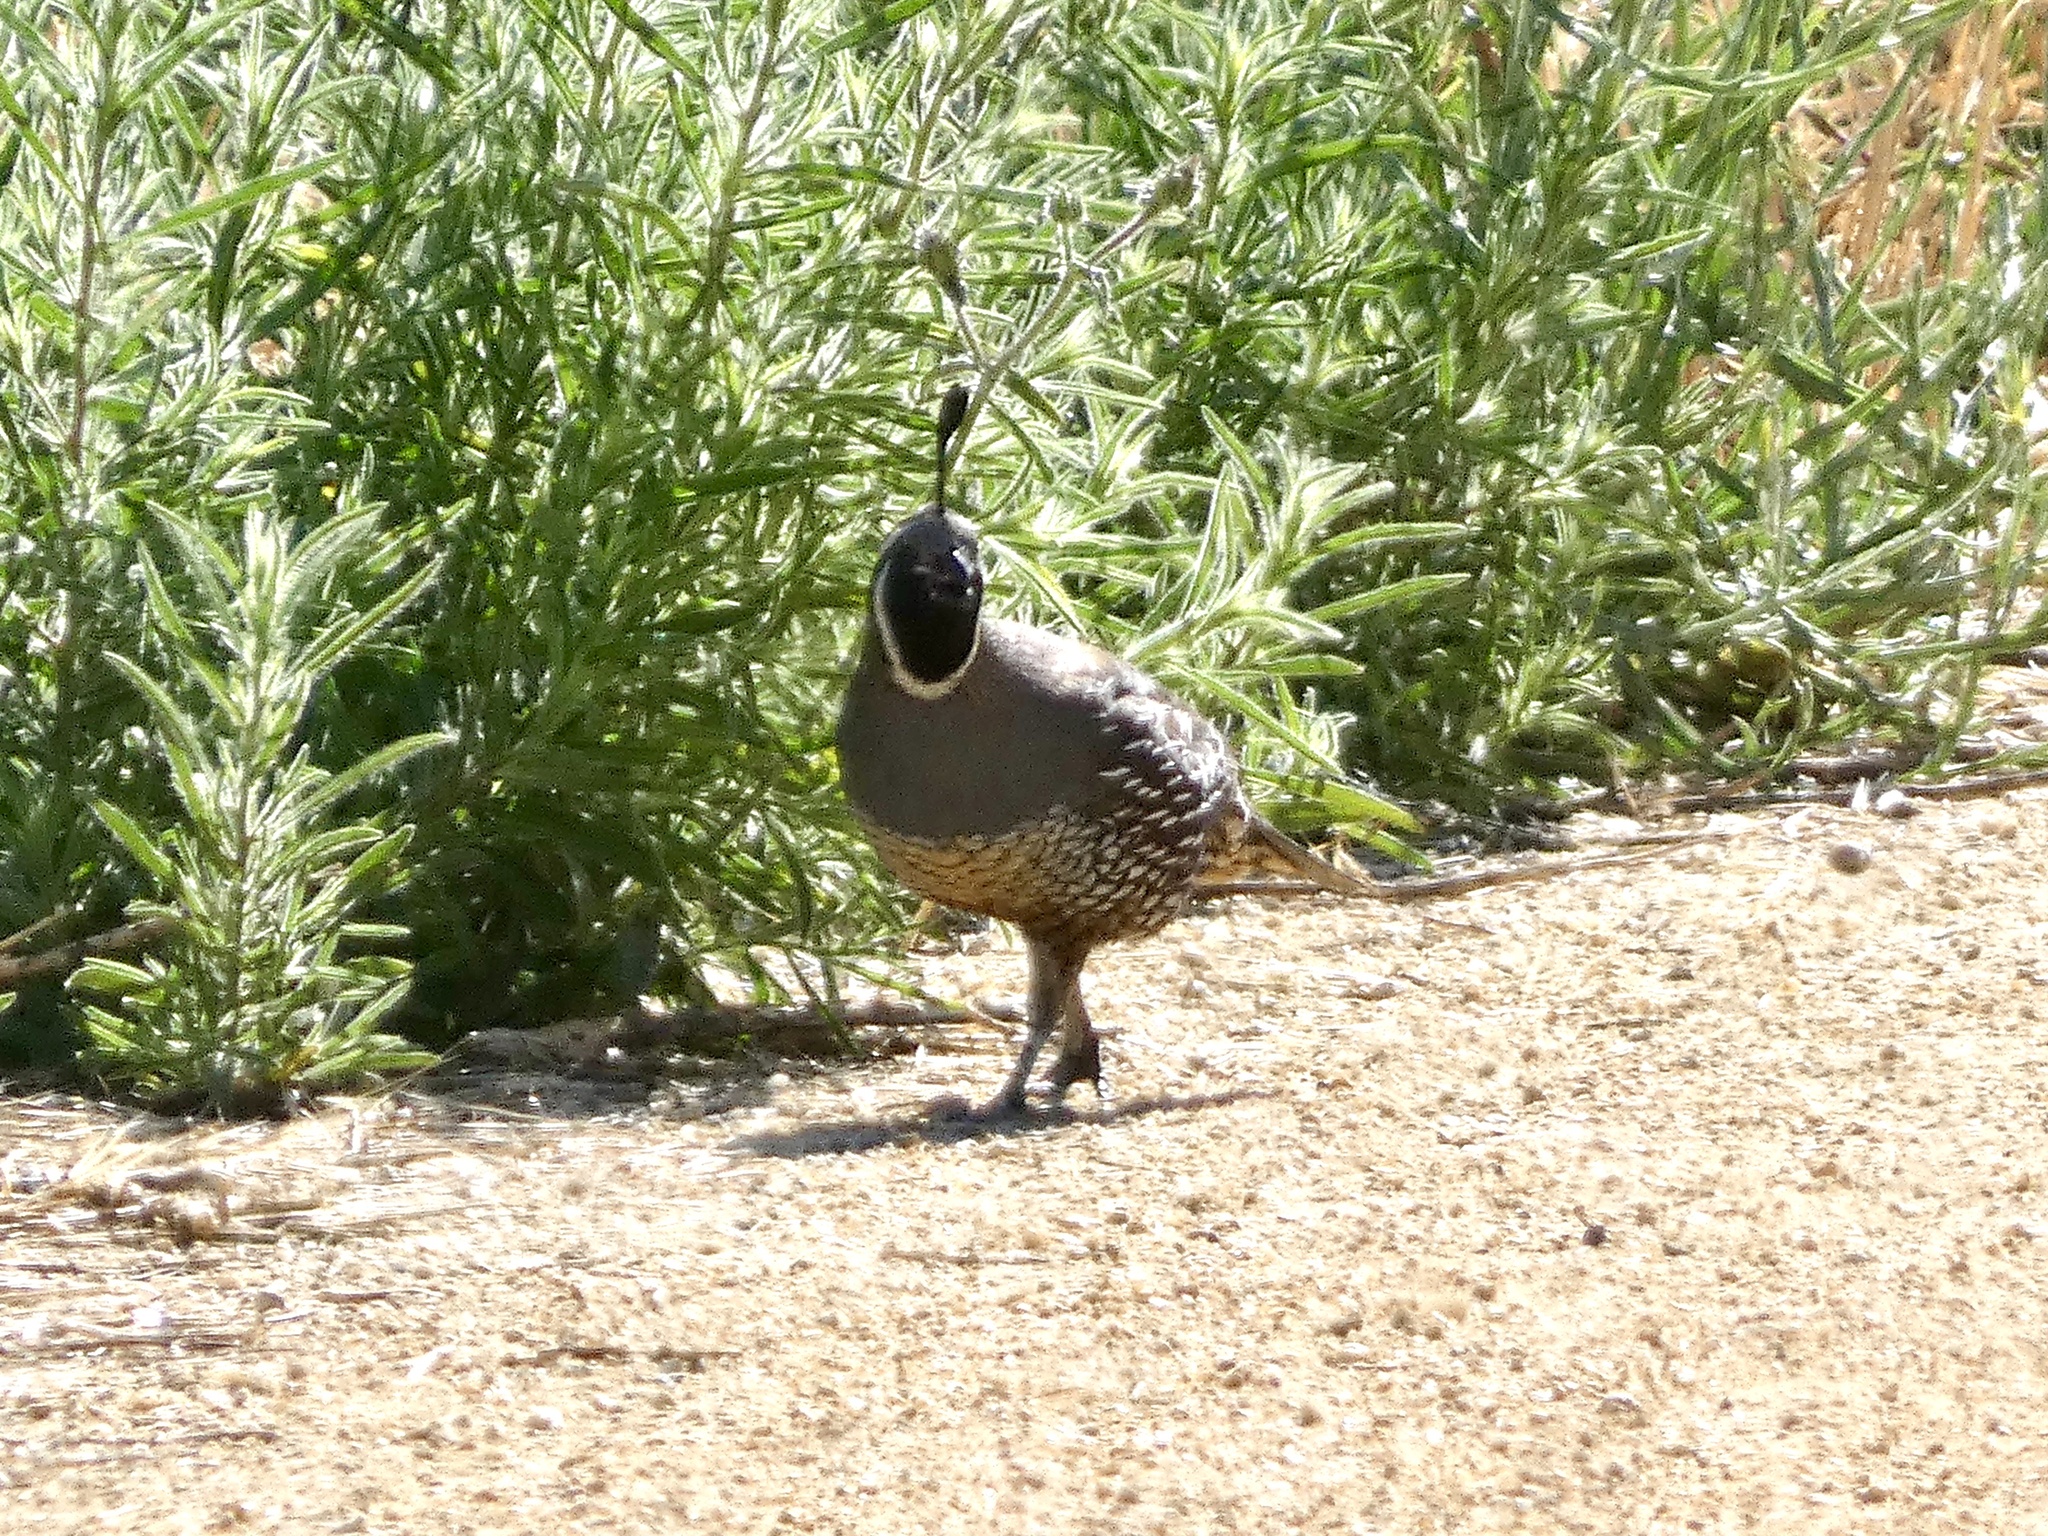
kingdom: Animalia
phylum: Chordata
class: Aves
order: Galliformes
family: Odontophoridae
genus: Callipepla
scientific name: Callipepla californica
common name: California quail
